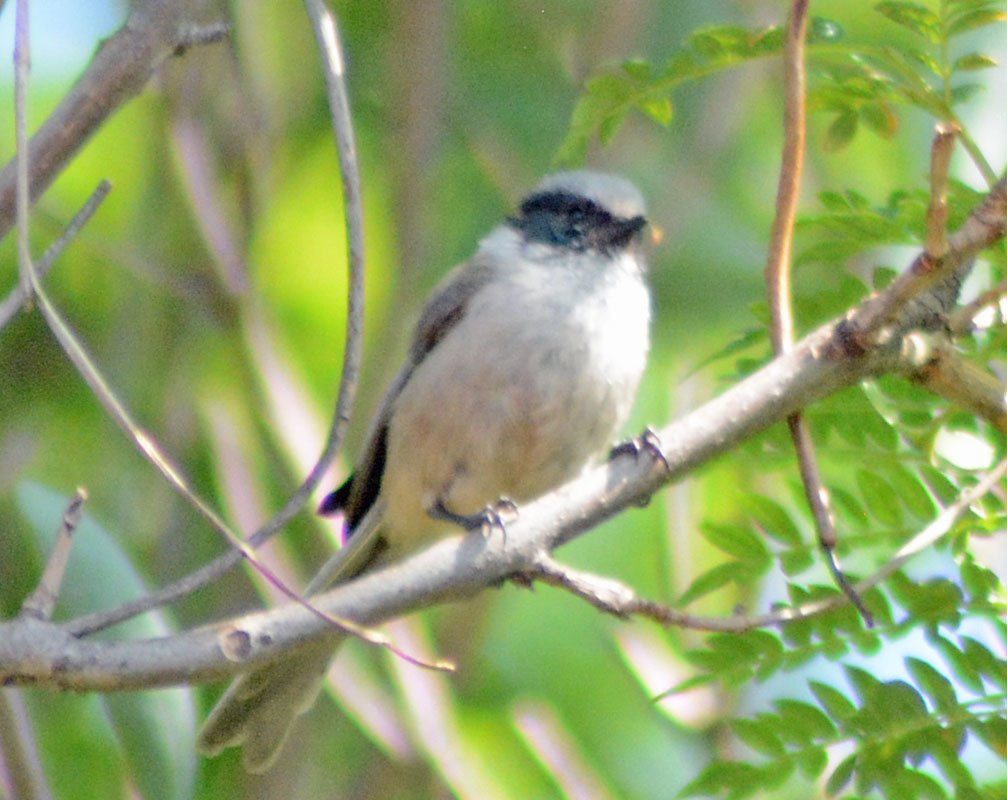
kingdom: Animalia
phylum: Chordata
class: Aves
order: Passeriformes
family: Aegithalidae
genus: Psaltriparus
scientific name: Psaltriparus minimus
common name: American bushtit
